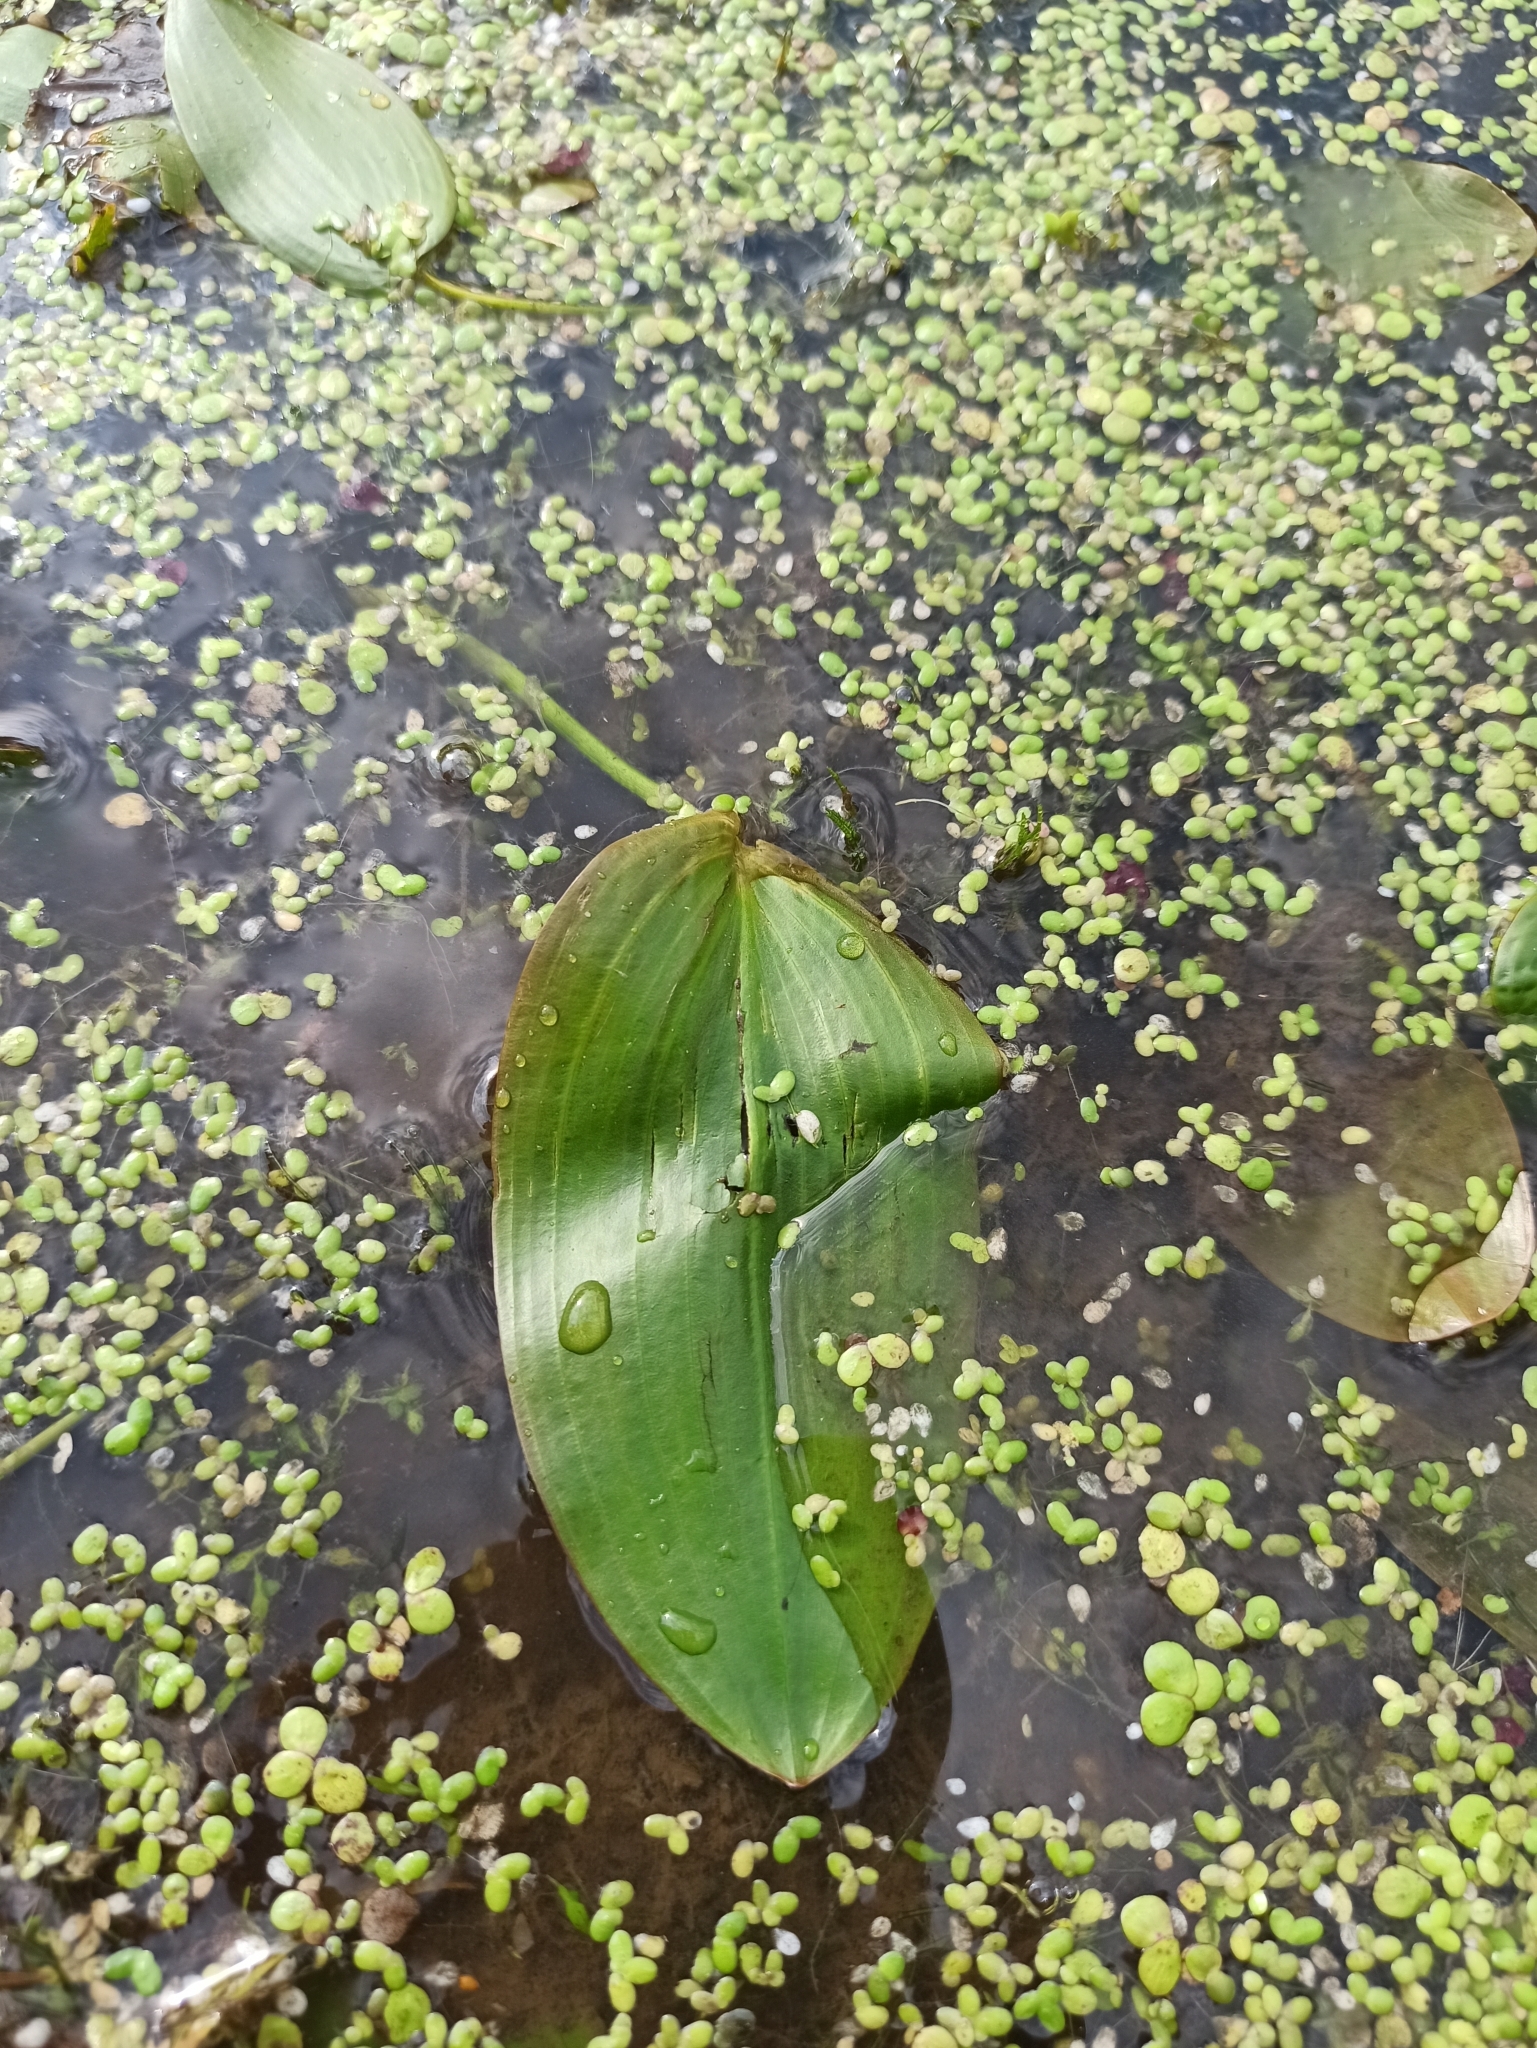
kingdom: Plantae
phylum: Tracheophyta
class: Liliopsida
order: Alismatales
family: Potamogetonaceae
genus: Potamogeton
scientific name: Potamogeton natans
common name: Broad-leaved pondweed
